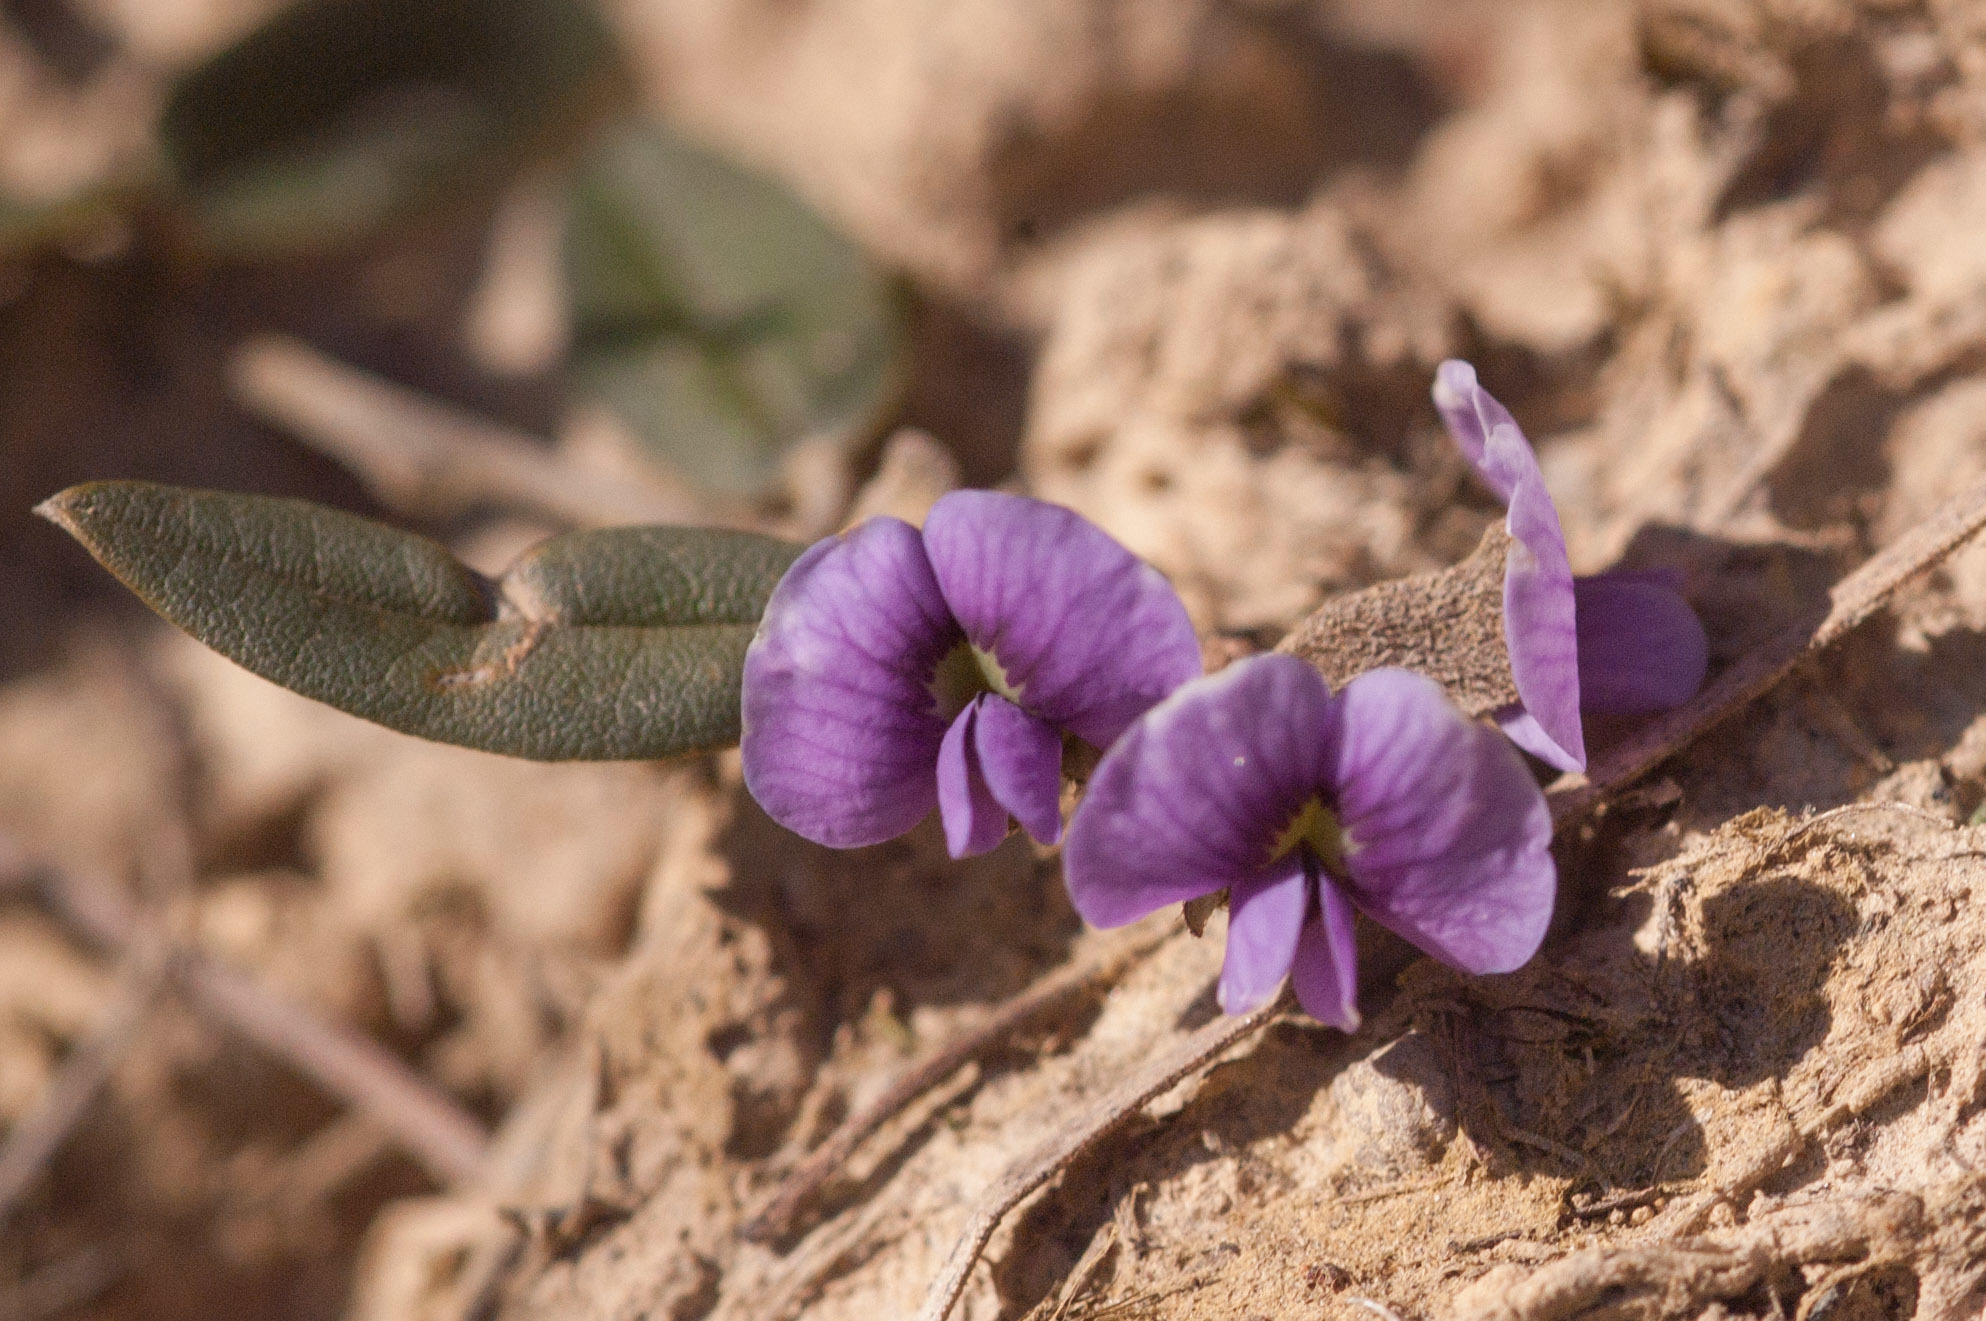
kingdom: Plantae
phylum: Tracheophyta
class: Magnoliopsida
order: Fabales
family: Fabaceae
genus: Hovea
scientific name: Hovea heterophylla
